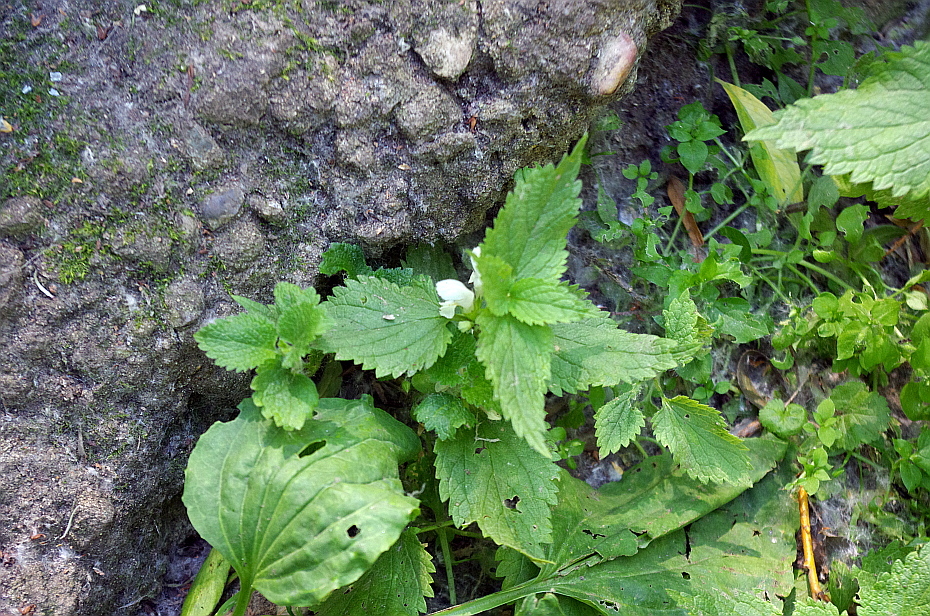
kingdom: Plantae
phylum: Tracheophyta
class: Magnoliopsida
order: Lamiales
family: Lamiaceae
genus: Lamium
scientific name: Lamium album
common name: White dead-nettle
